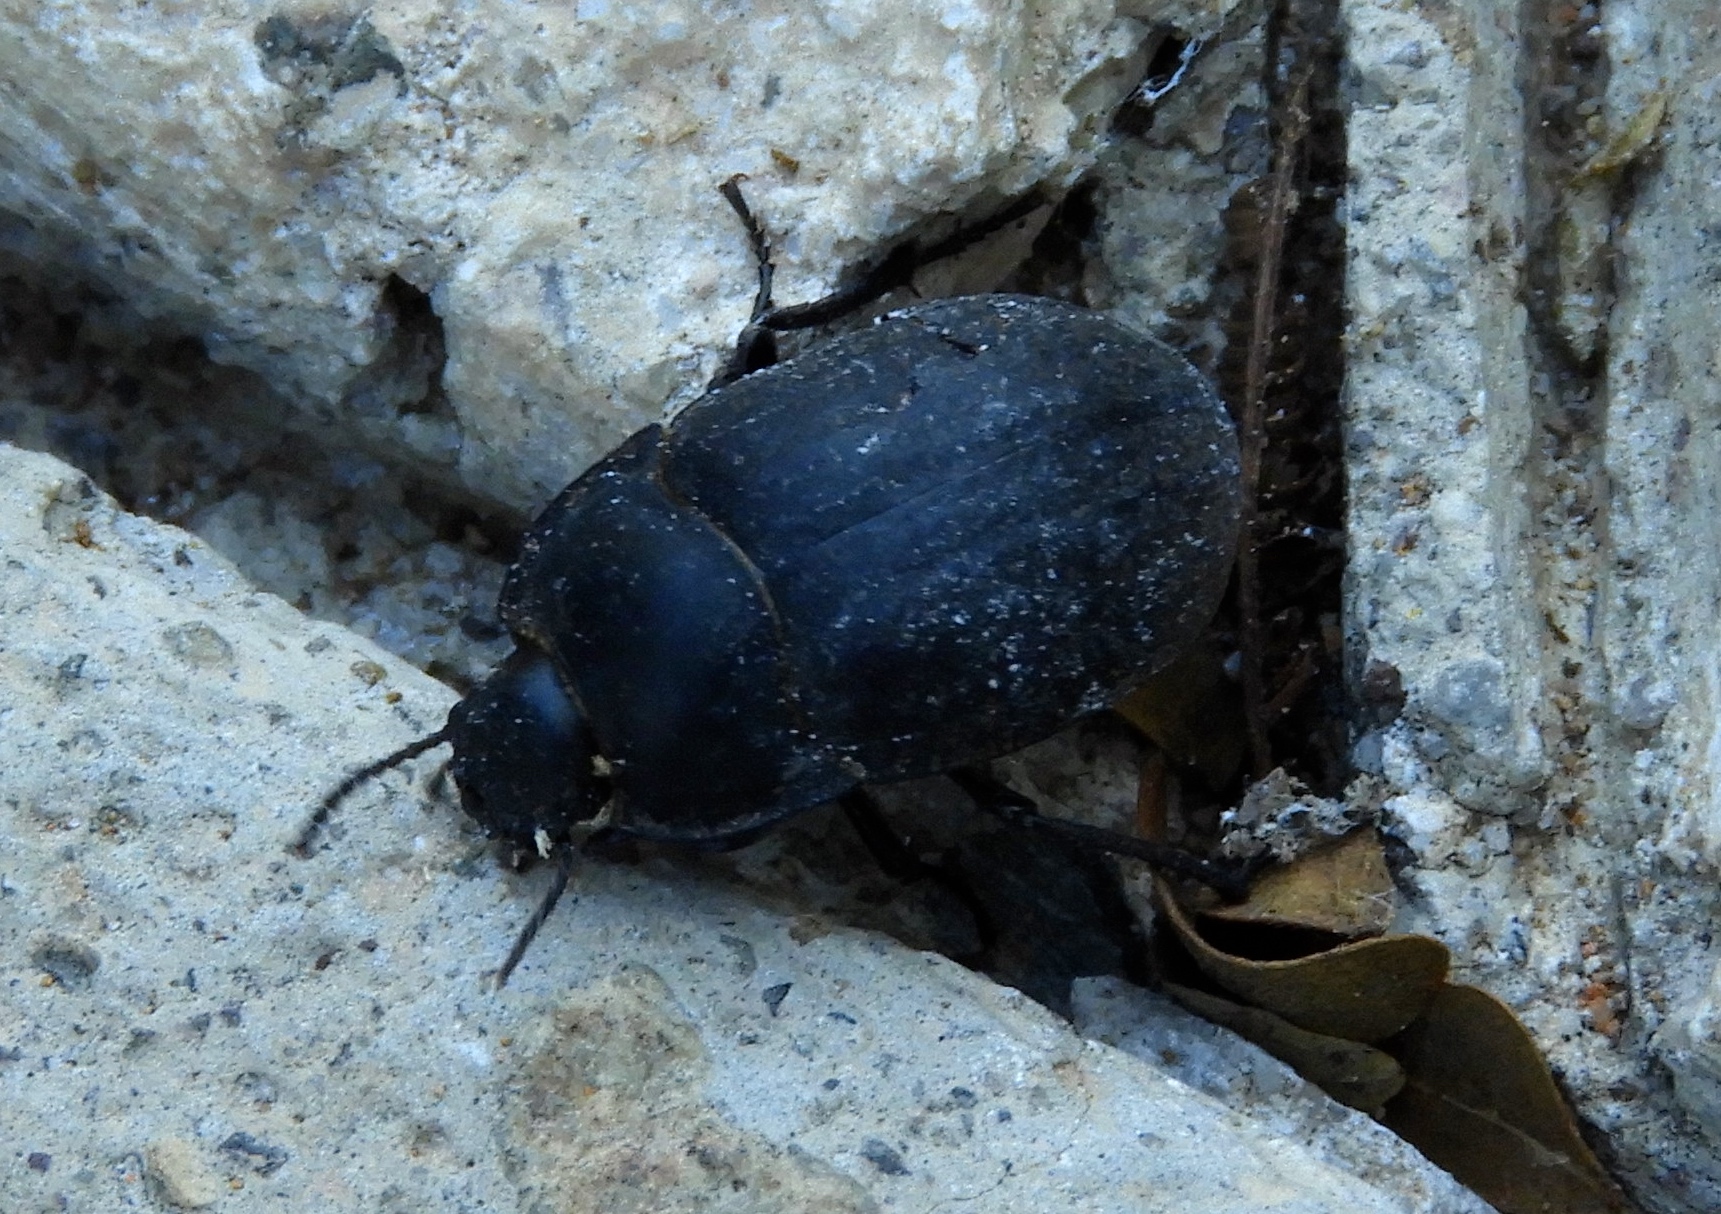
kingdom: Animalia
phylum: Arthropoda
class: Insecta
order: Coleoptera
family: Tenebrionidae
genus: Eusattus
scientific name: Eusattus
